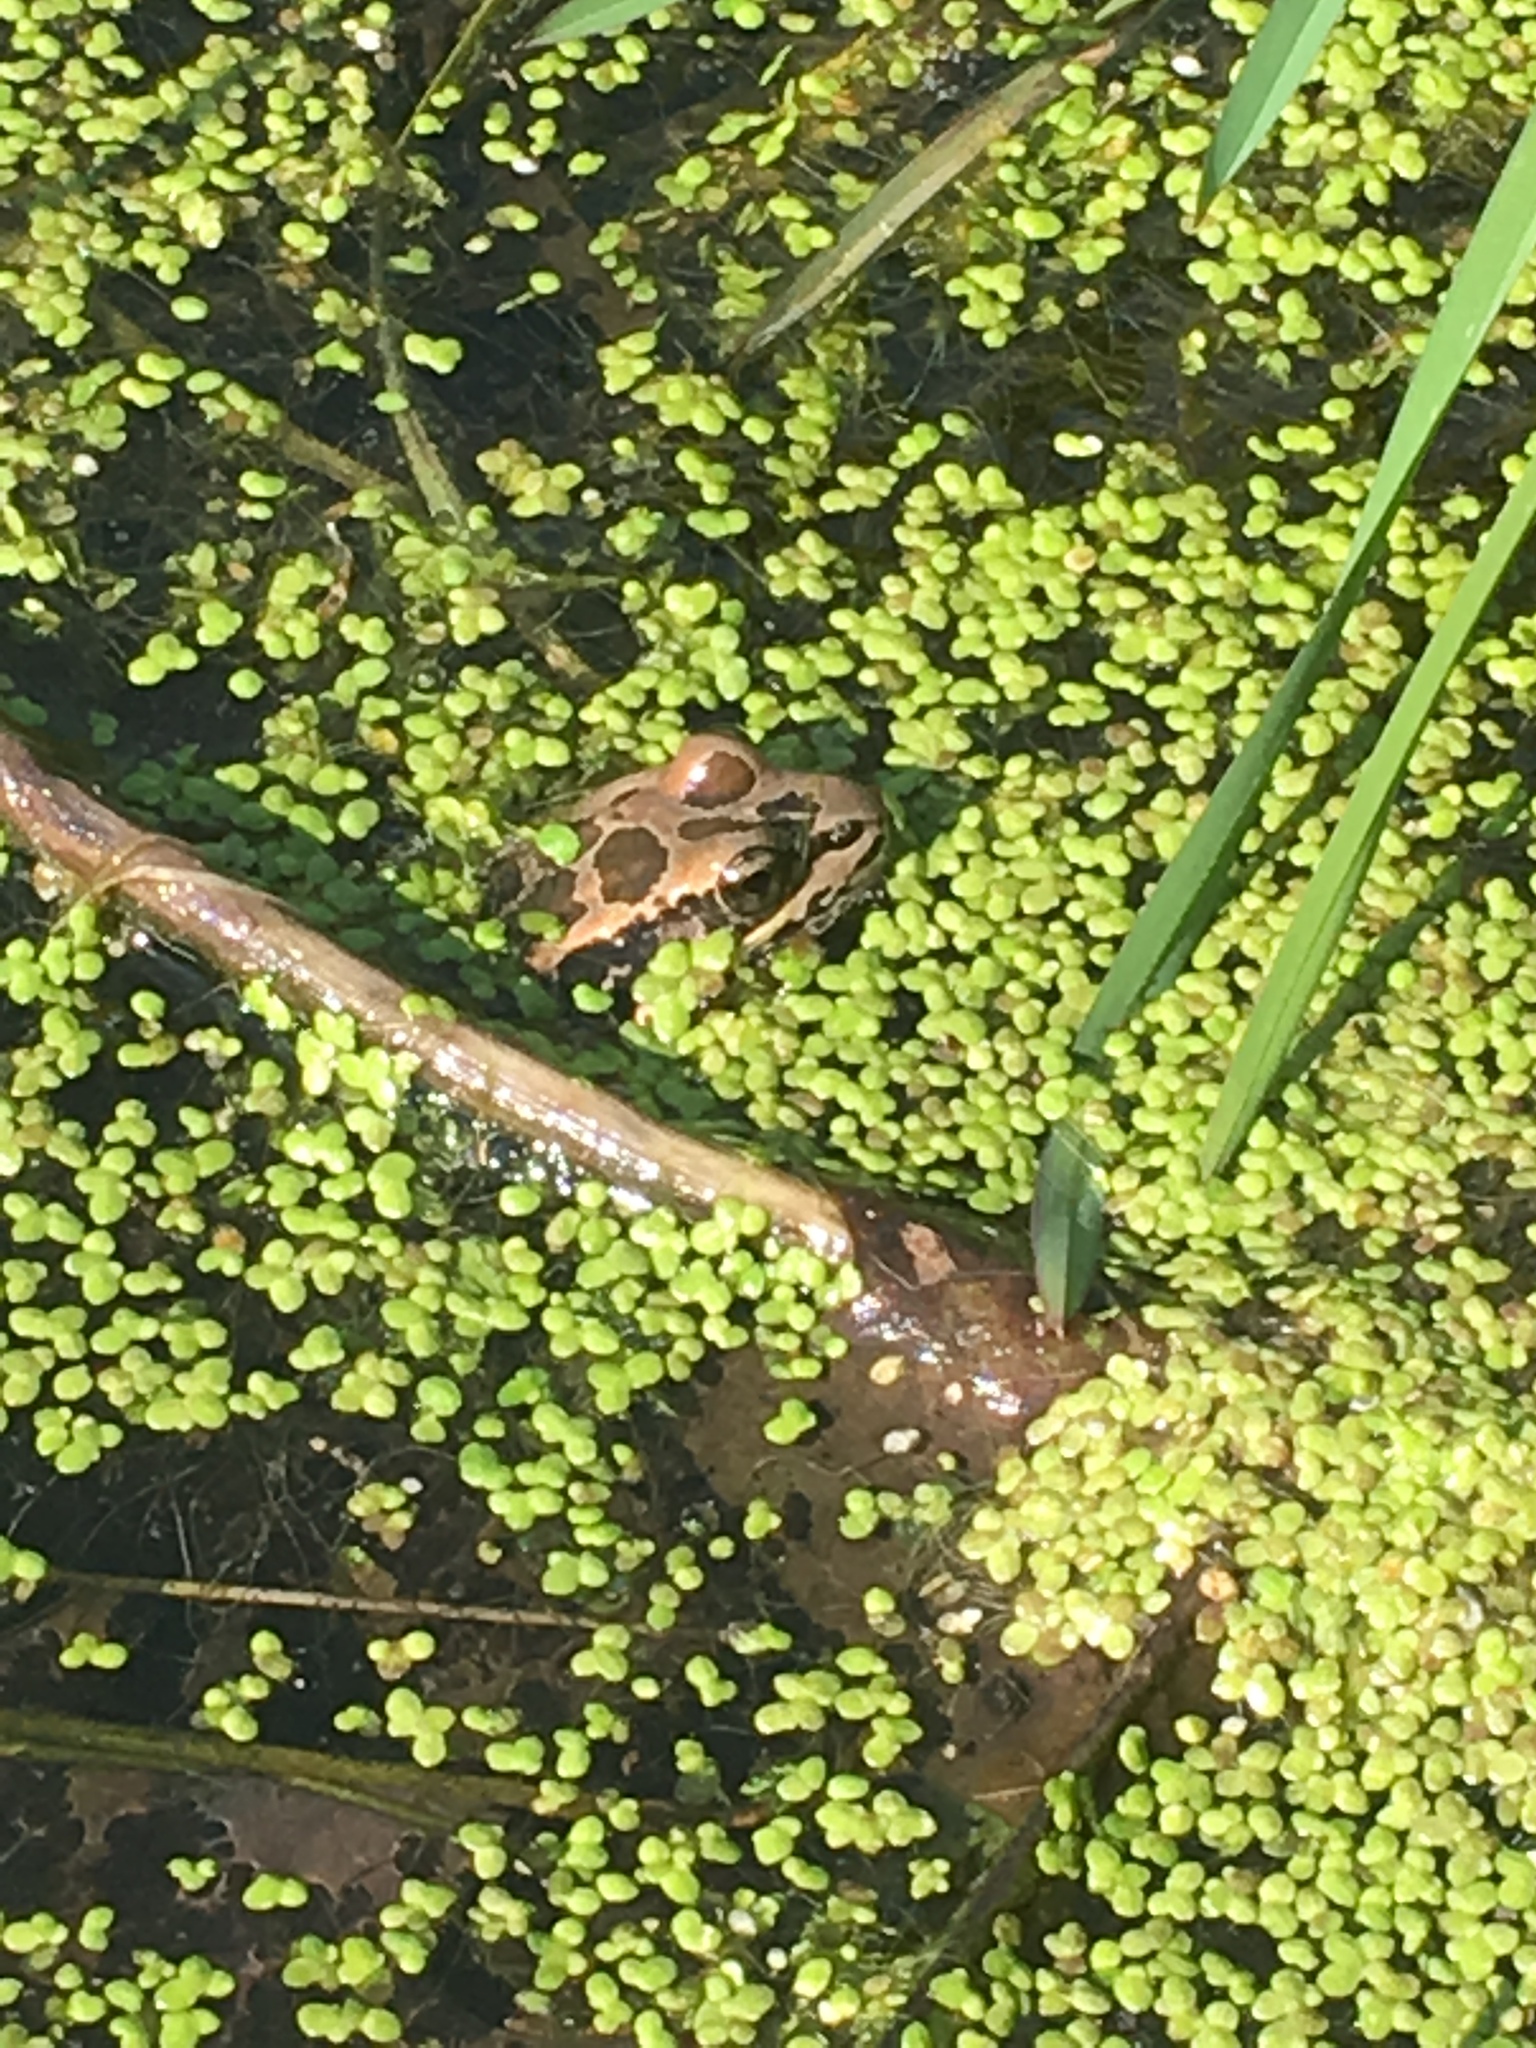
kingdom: Animalia
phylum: Chordata
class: Amphibia
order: Anura
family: Ranidae
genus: Lithobates
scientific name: Lithobates palustris
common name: Pickerel frog
